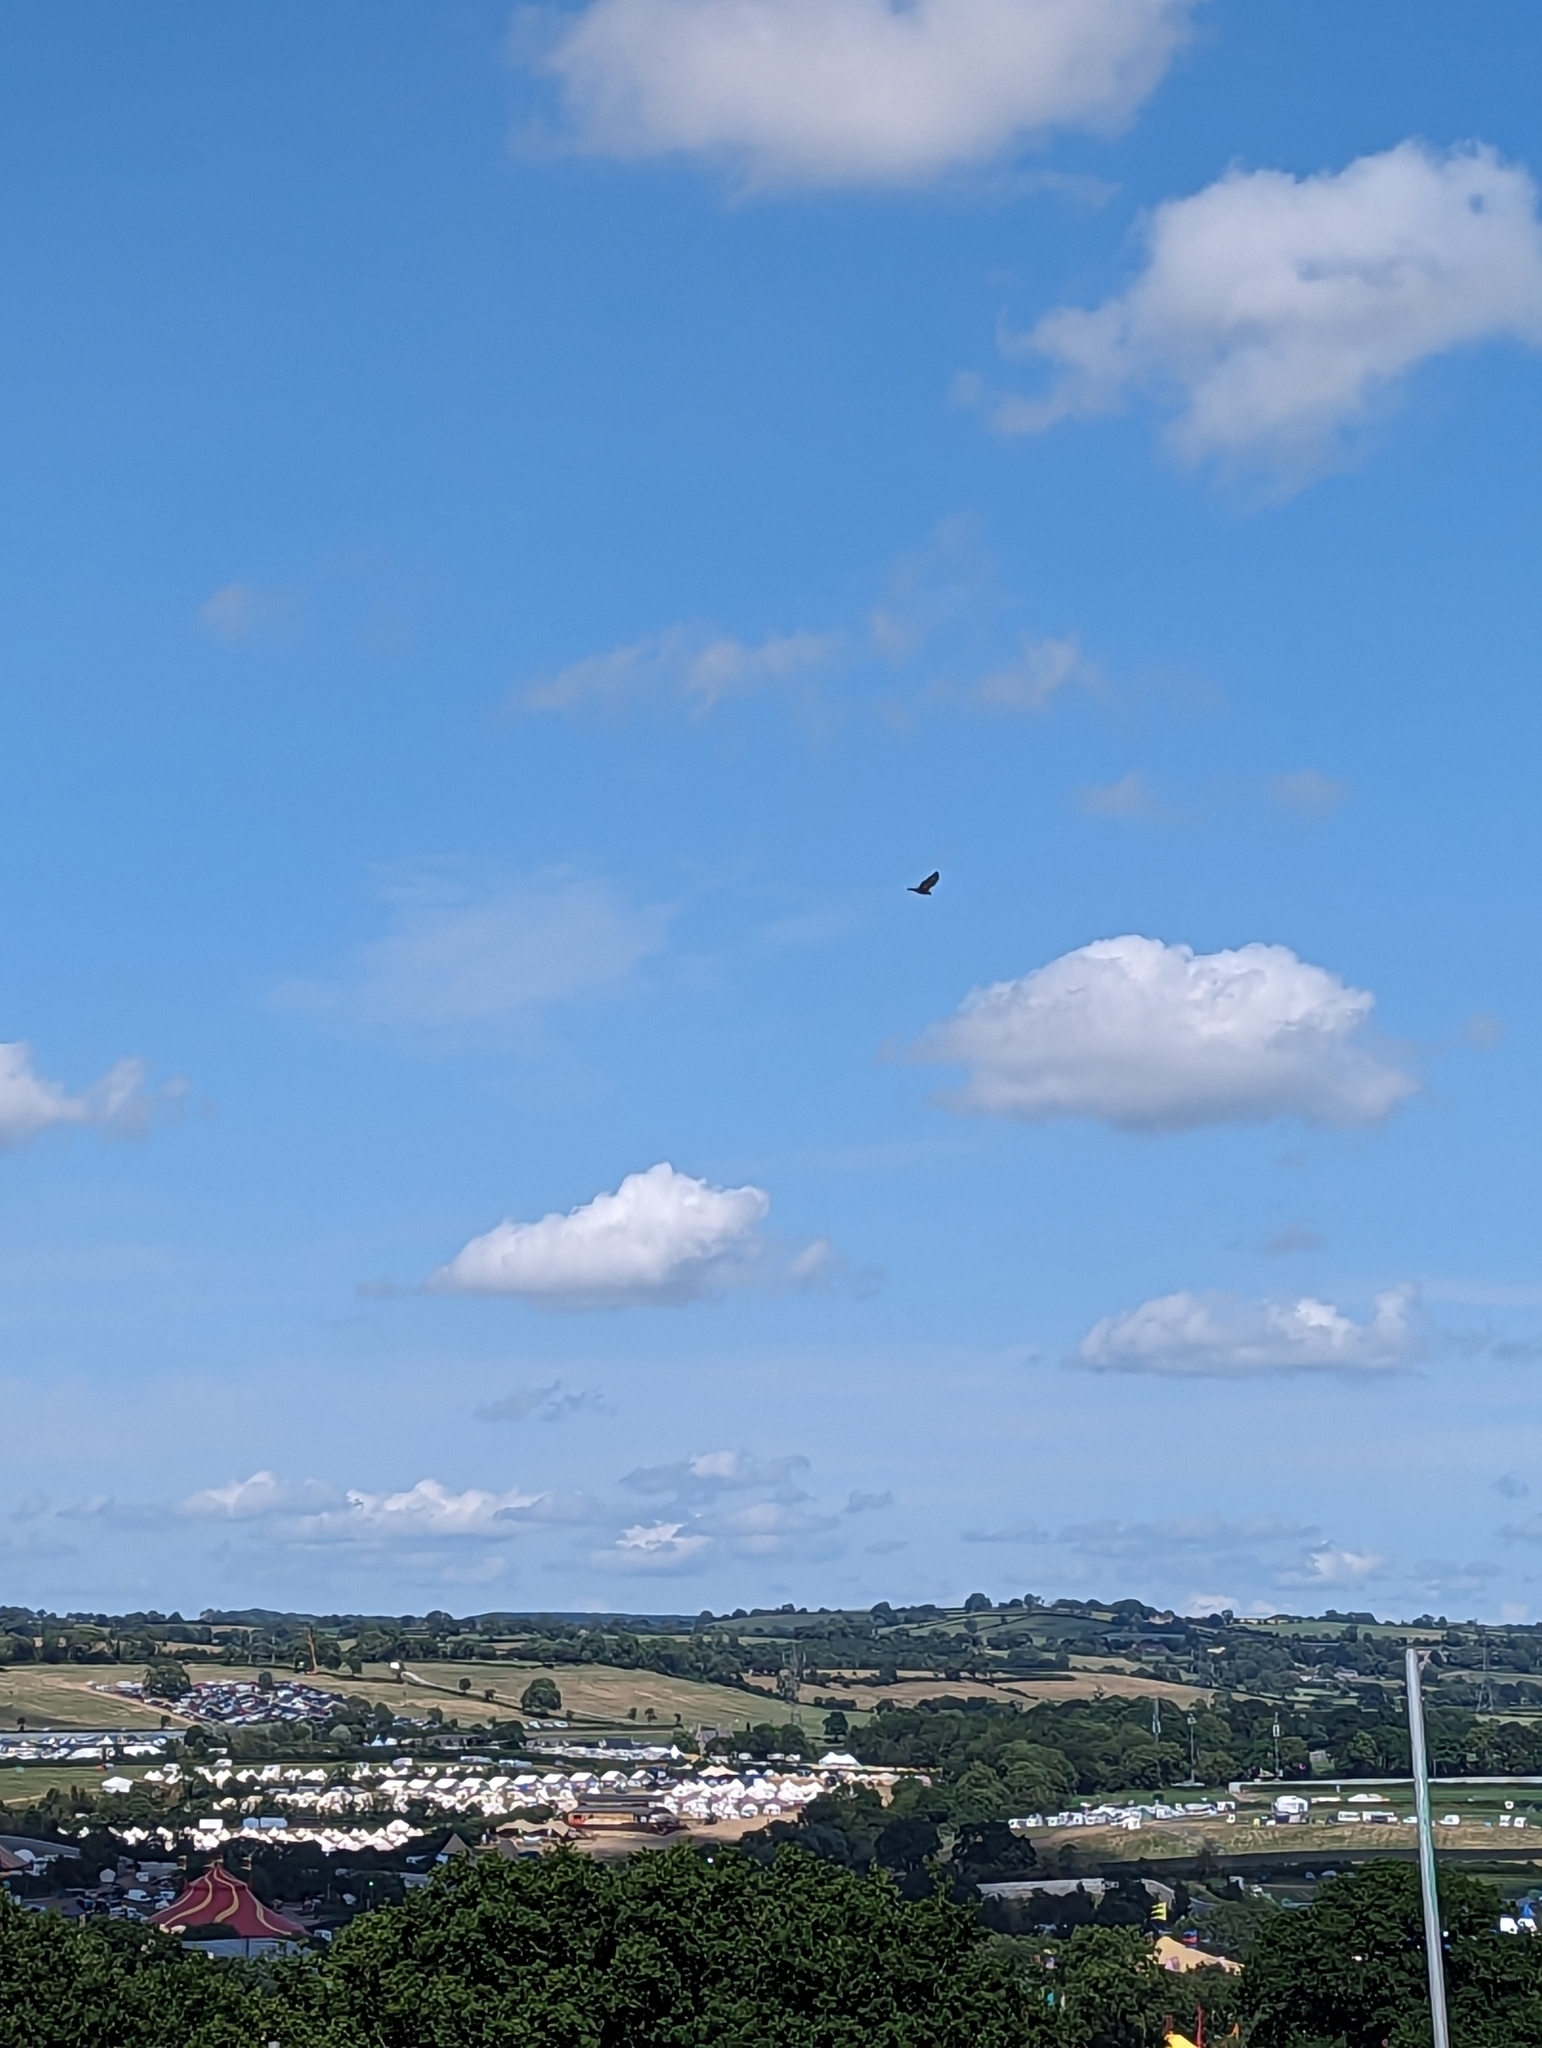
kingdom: Animalia
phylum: Chordata
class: Aves
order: Accipitriformes
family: Accipitridae
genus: Buteo
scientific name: Buteo buteo
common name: Common buzzard
